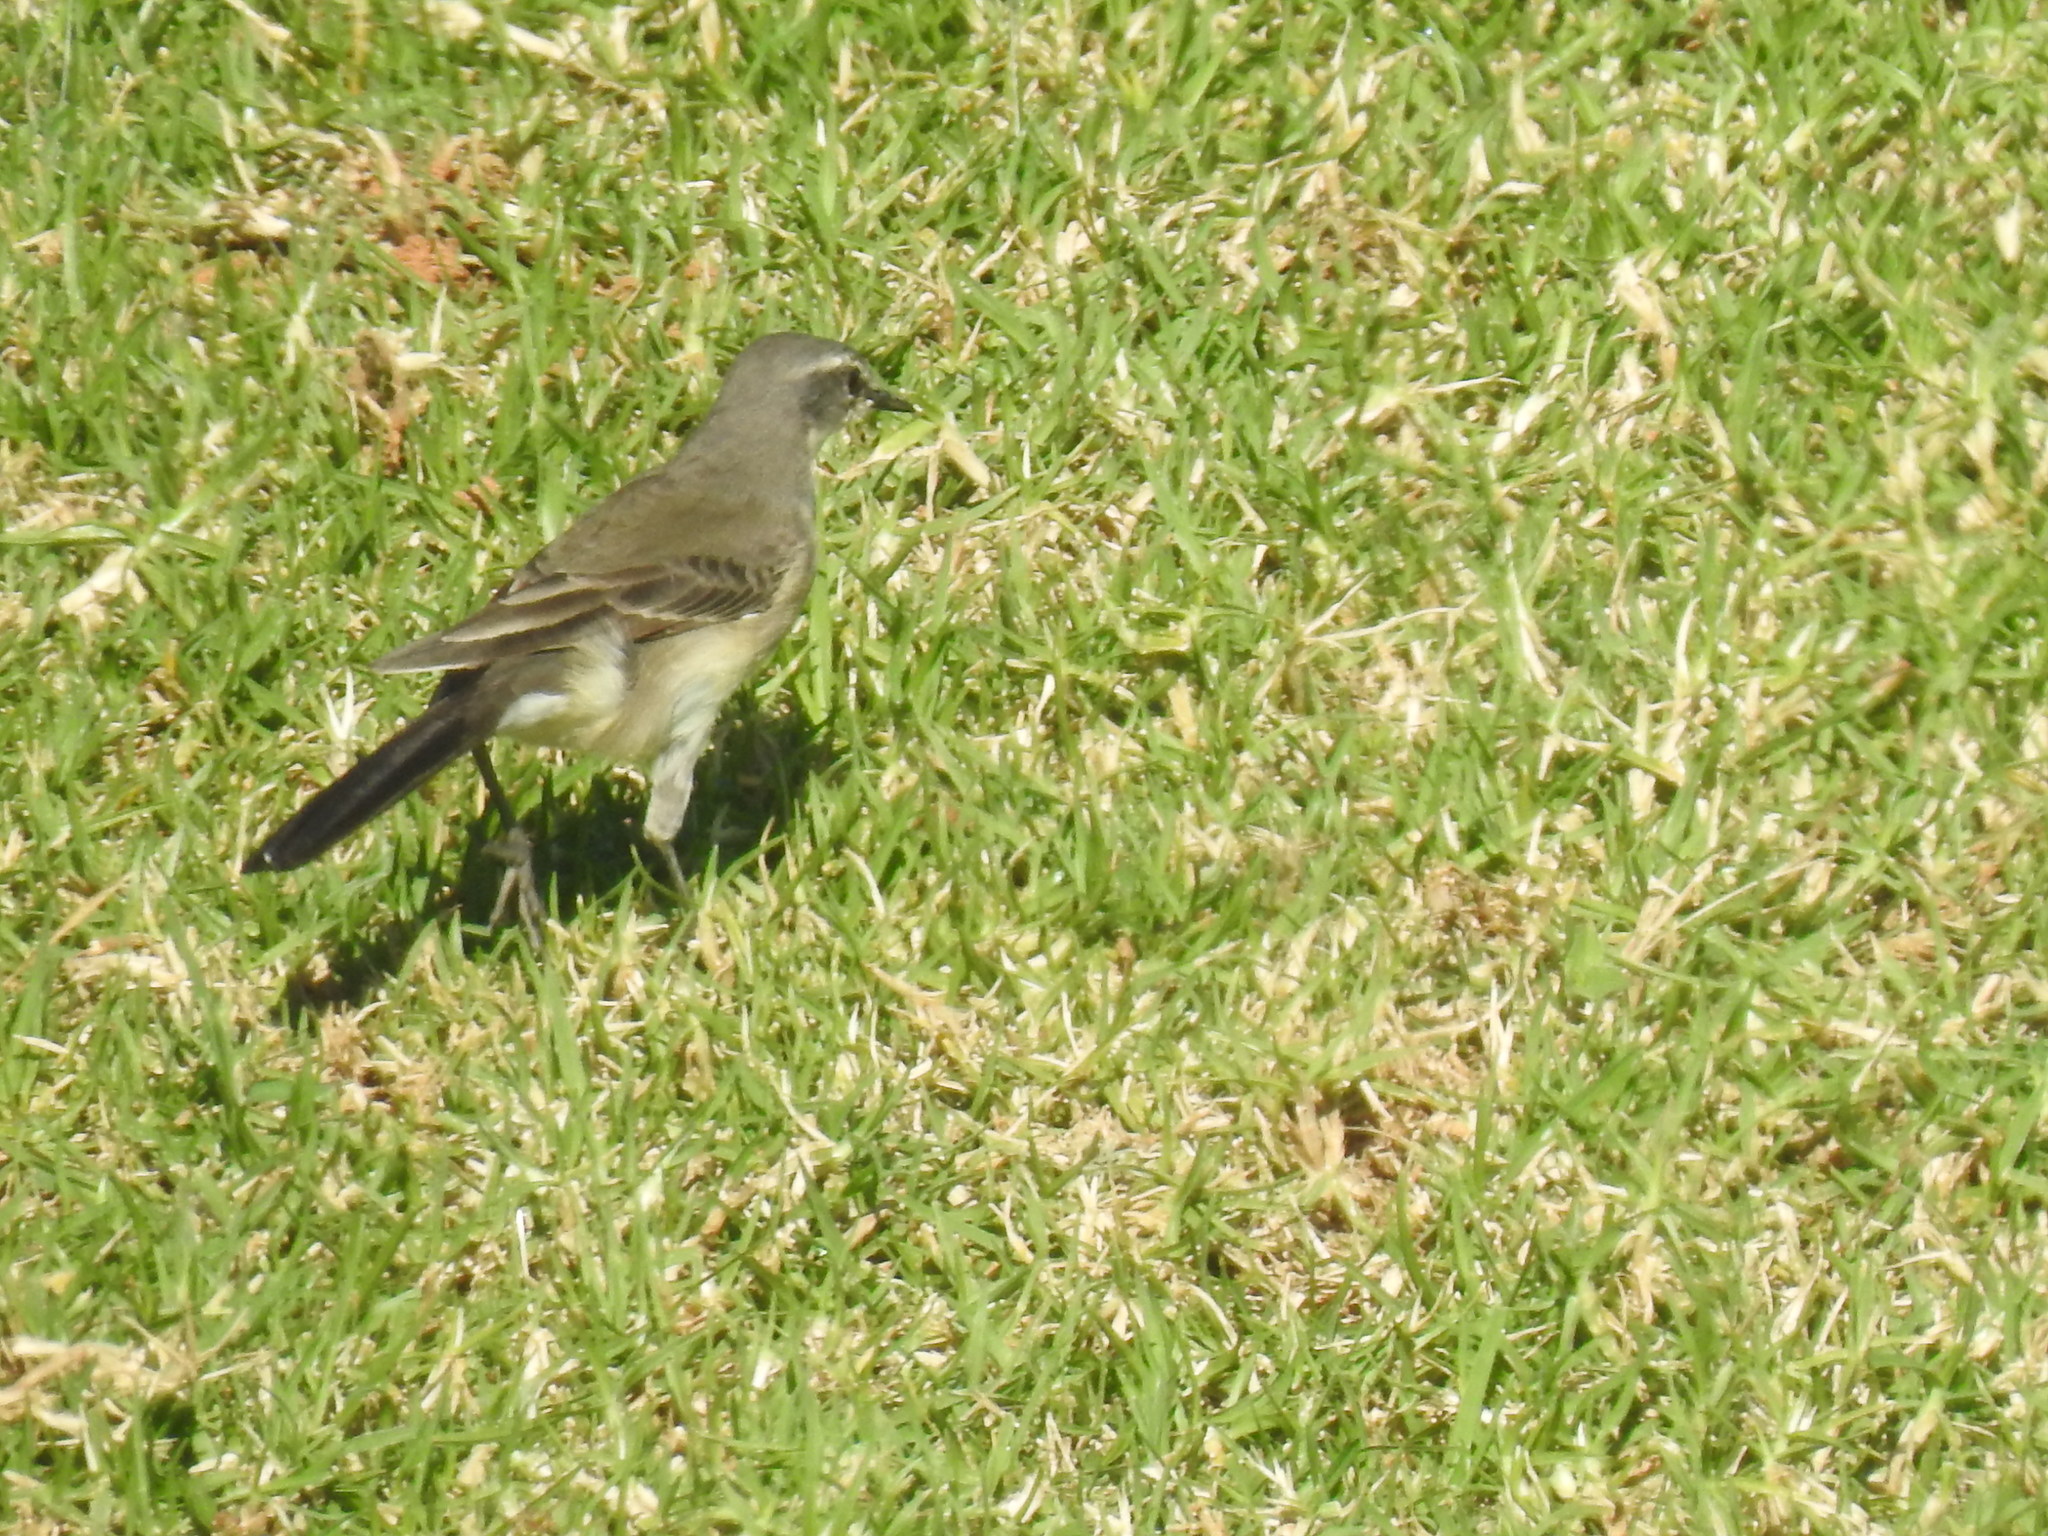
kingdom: Animalia
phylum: Chordata
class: Aves
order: Passeriformes
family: Motacillidae
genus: Motacilla
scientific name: Motacilla capensis
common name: Cape wagtail
